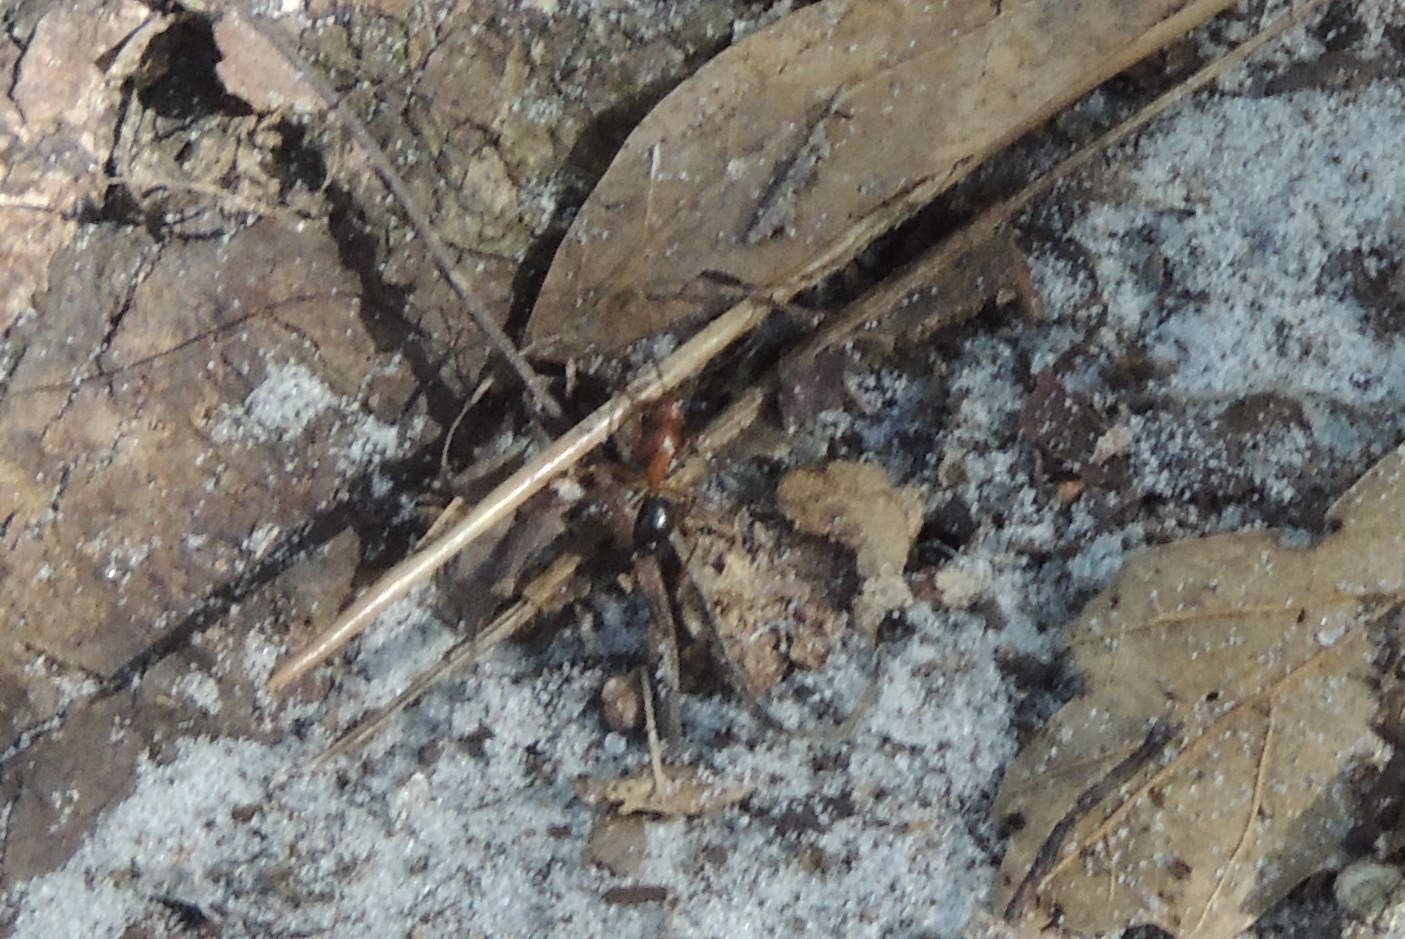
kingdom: Animalia
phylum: Arthropoda
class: Insecta
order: Hymenoptera
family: Formicidae
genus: Camponotus
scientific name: Camponotus floridanus
